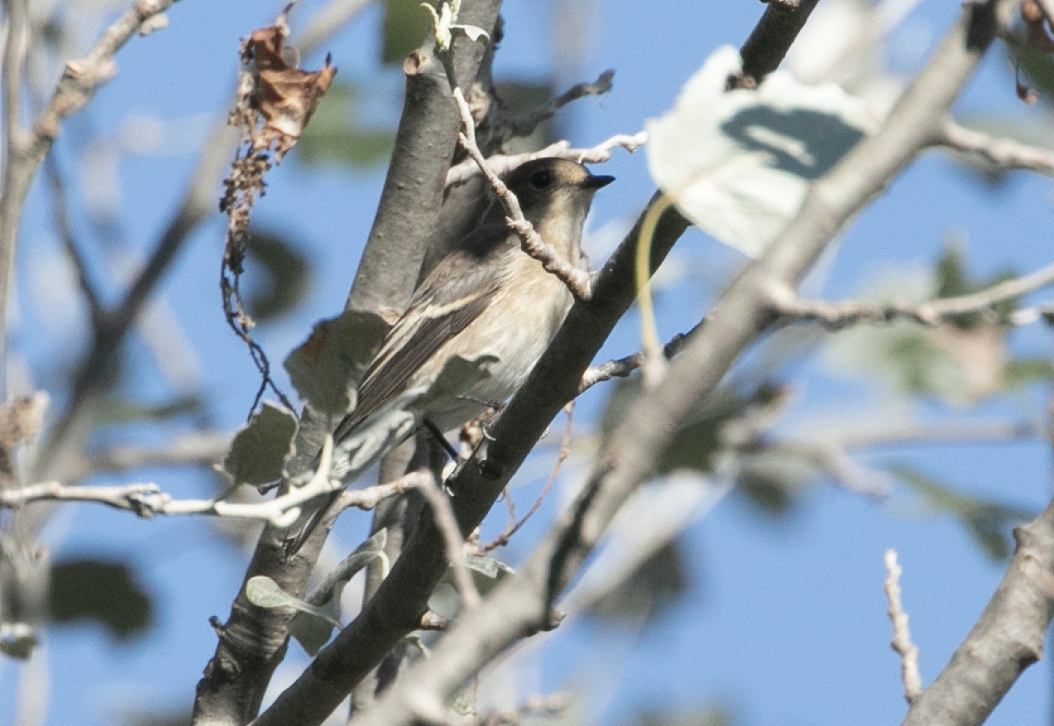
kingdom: Animalia
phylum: Chordata
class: Aves
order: Passeriformes
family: Muscicapidae
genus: Ficedula
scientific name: Ficedula hypoleuca
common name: European pied flycatcher
